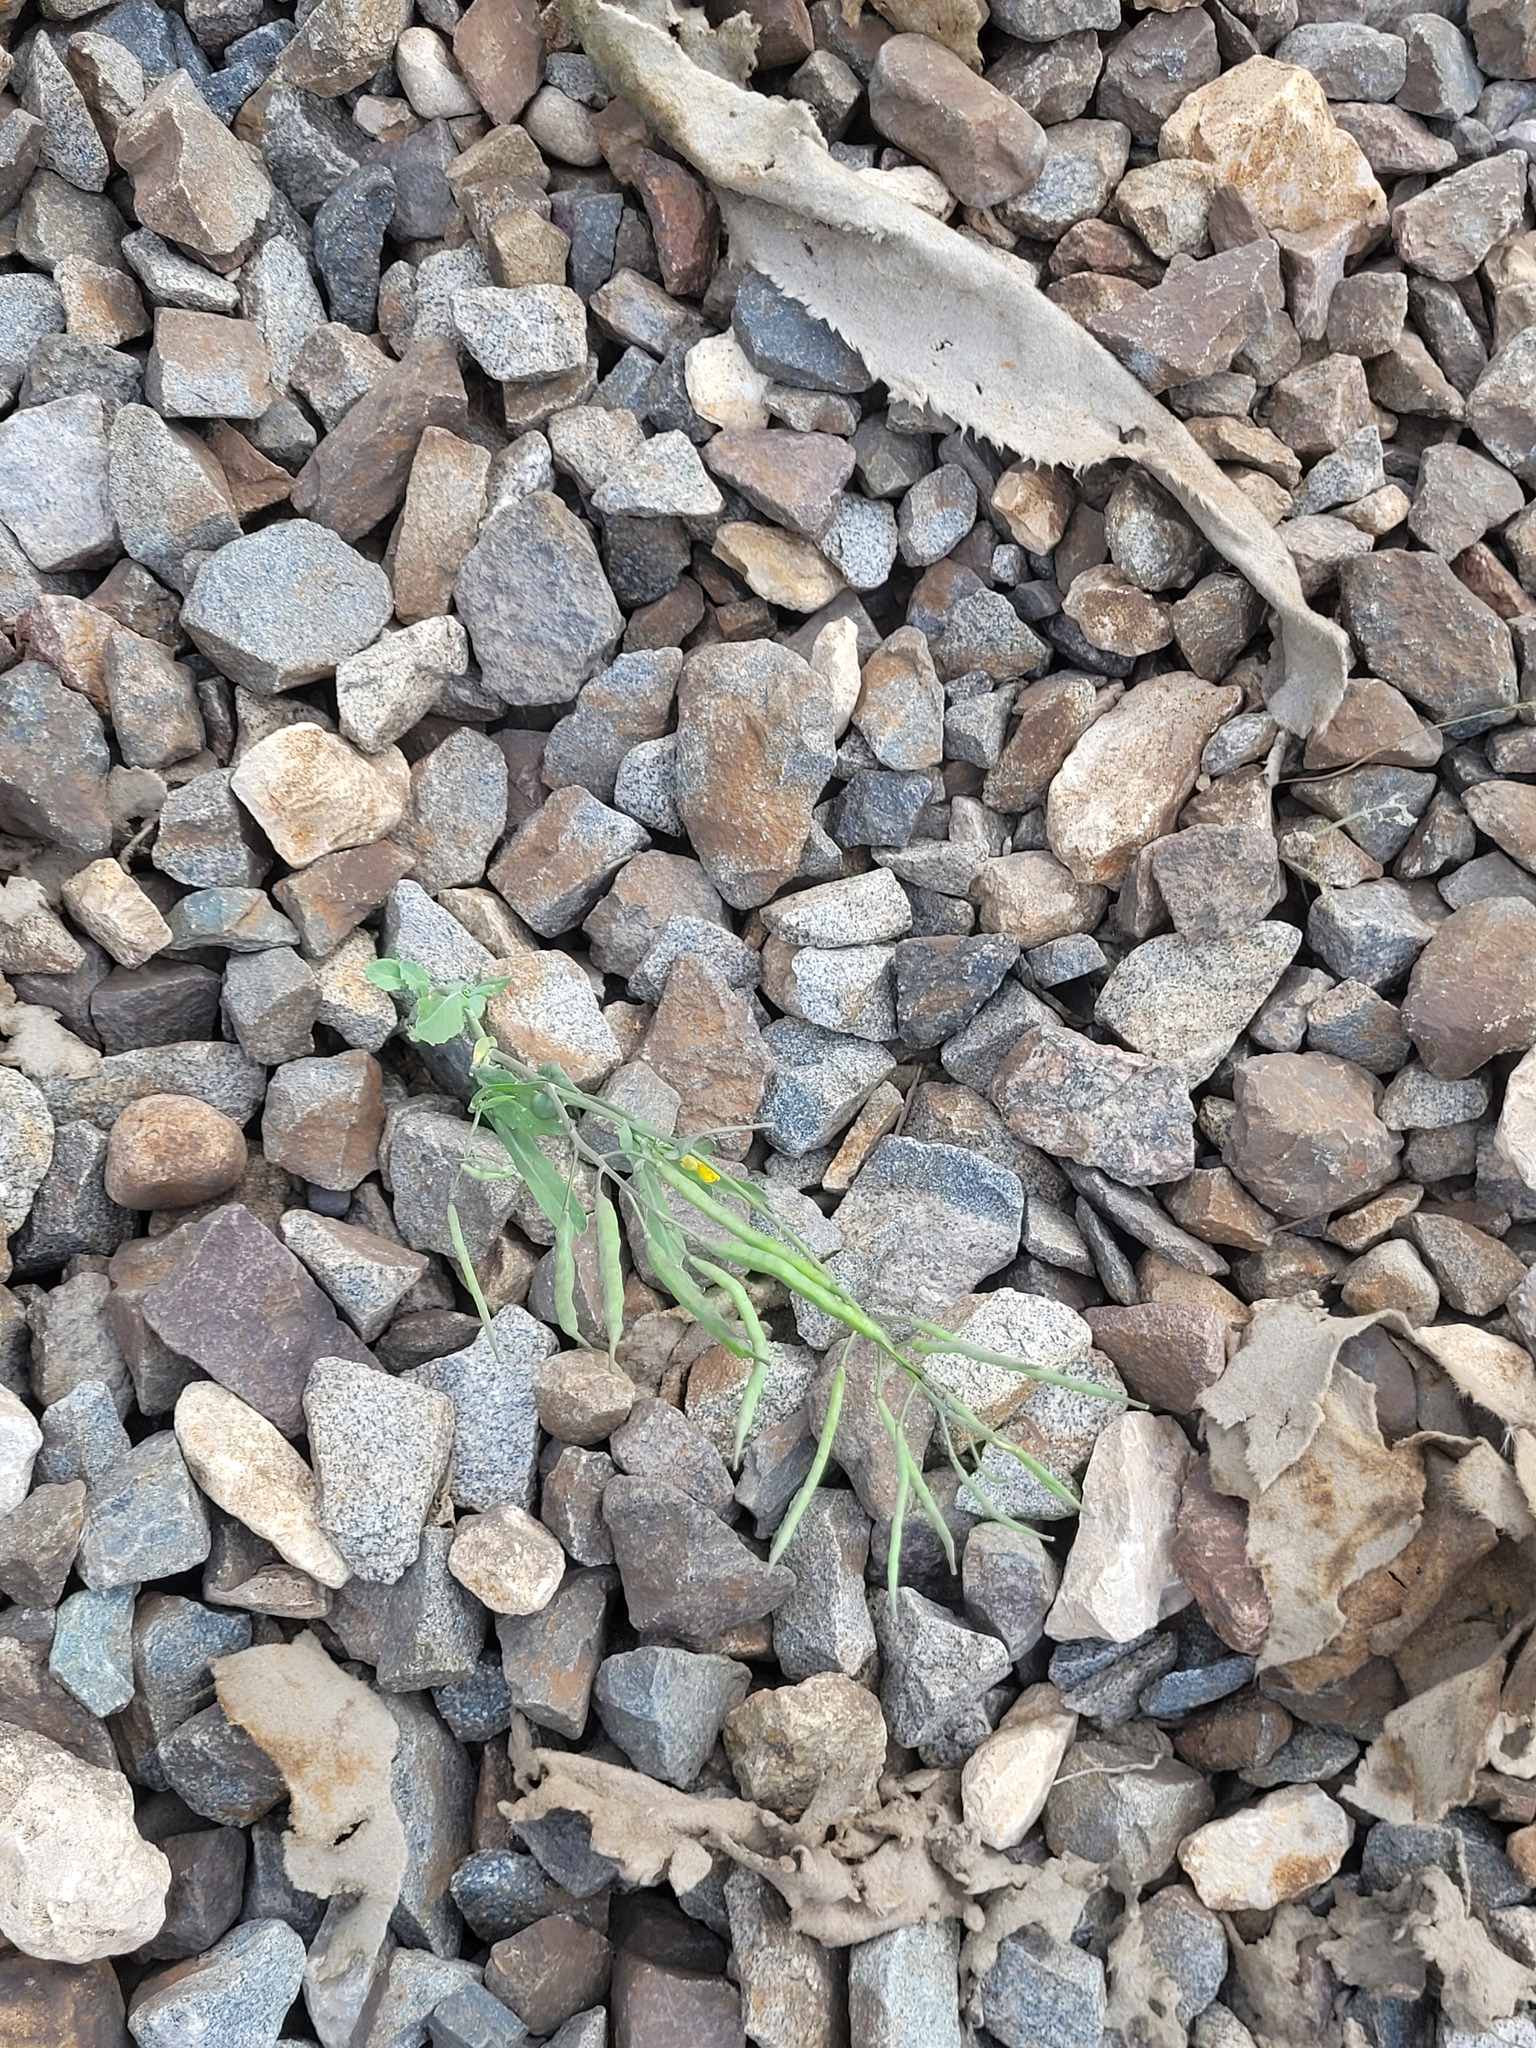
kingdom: Plantae
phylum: Tracheophyta
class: Magnoliopsida
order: Brassicales
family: Brassicaceae
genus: Brassica
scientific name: Brassica napus
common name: Rape
